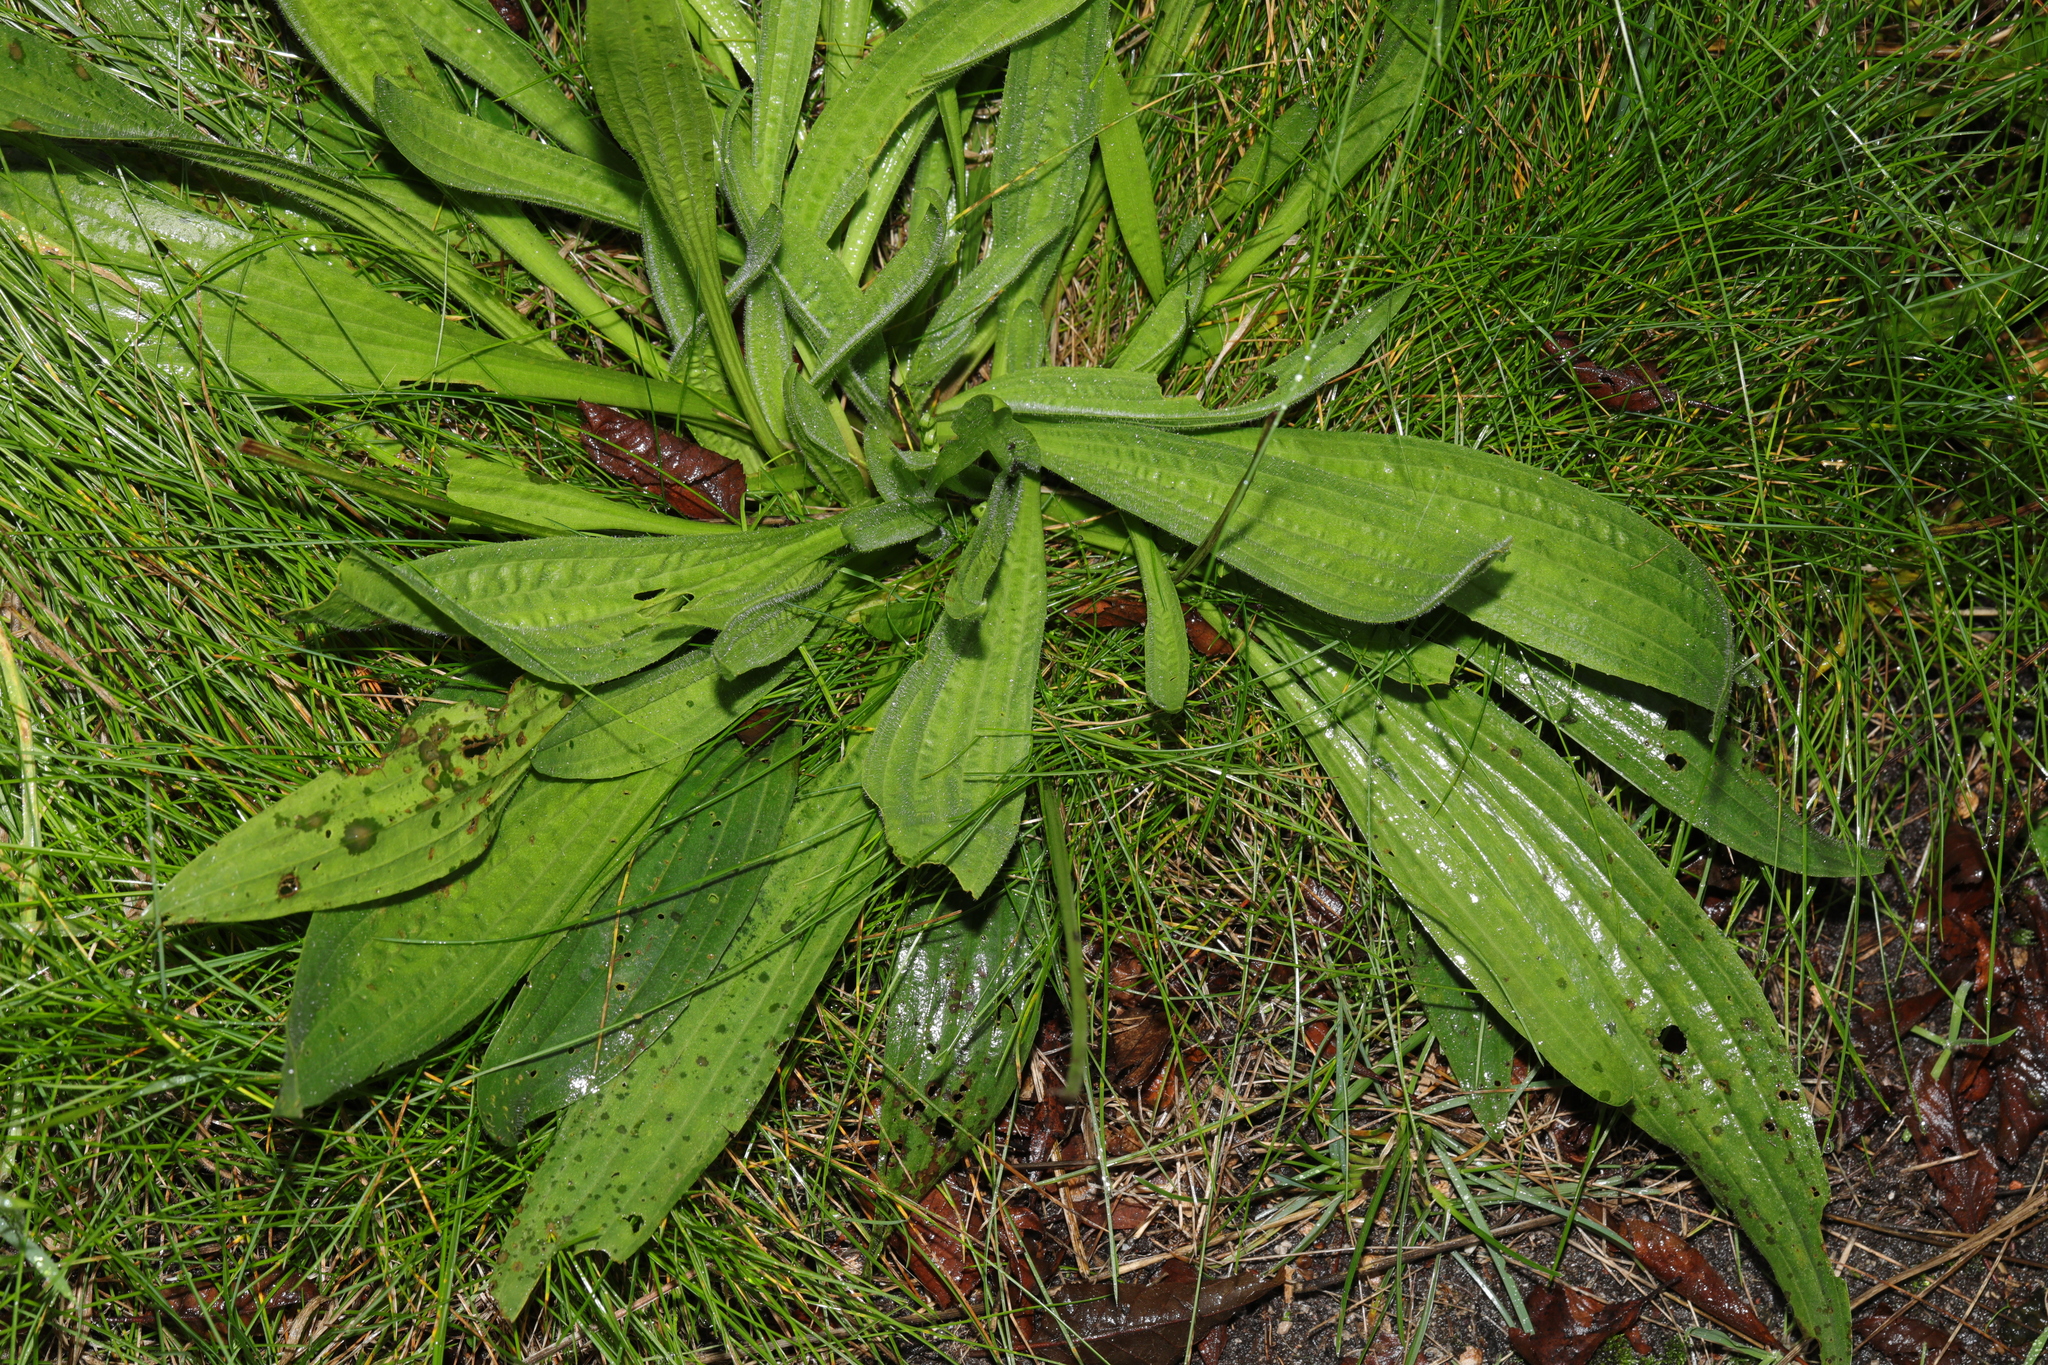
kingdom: Plantae
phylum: Tracheophyta
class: Magnoliopsida
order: Lamiales
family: Plantaginaceae
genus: Plantago
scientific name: Plantago lanceolata
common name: Ribwort plantain
